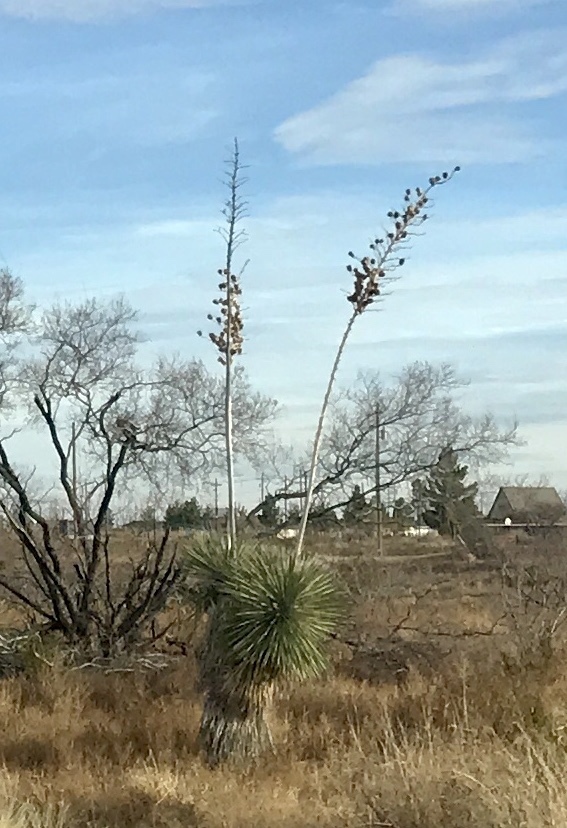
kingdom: Plantae
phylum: Tracheophyta
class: Liliopsida
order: Asparagales
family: Asparagaceae
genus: Yucca
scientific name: Yucca elata
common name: Palmella
